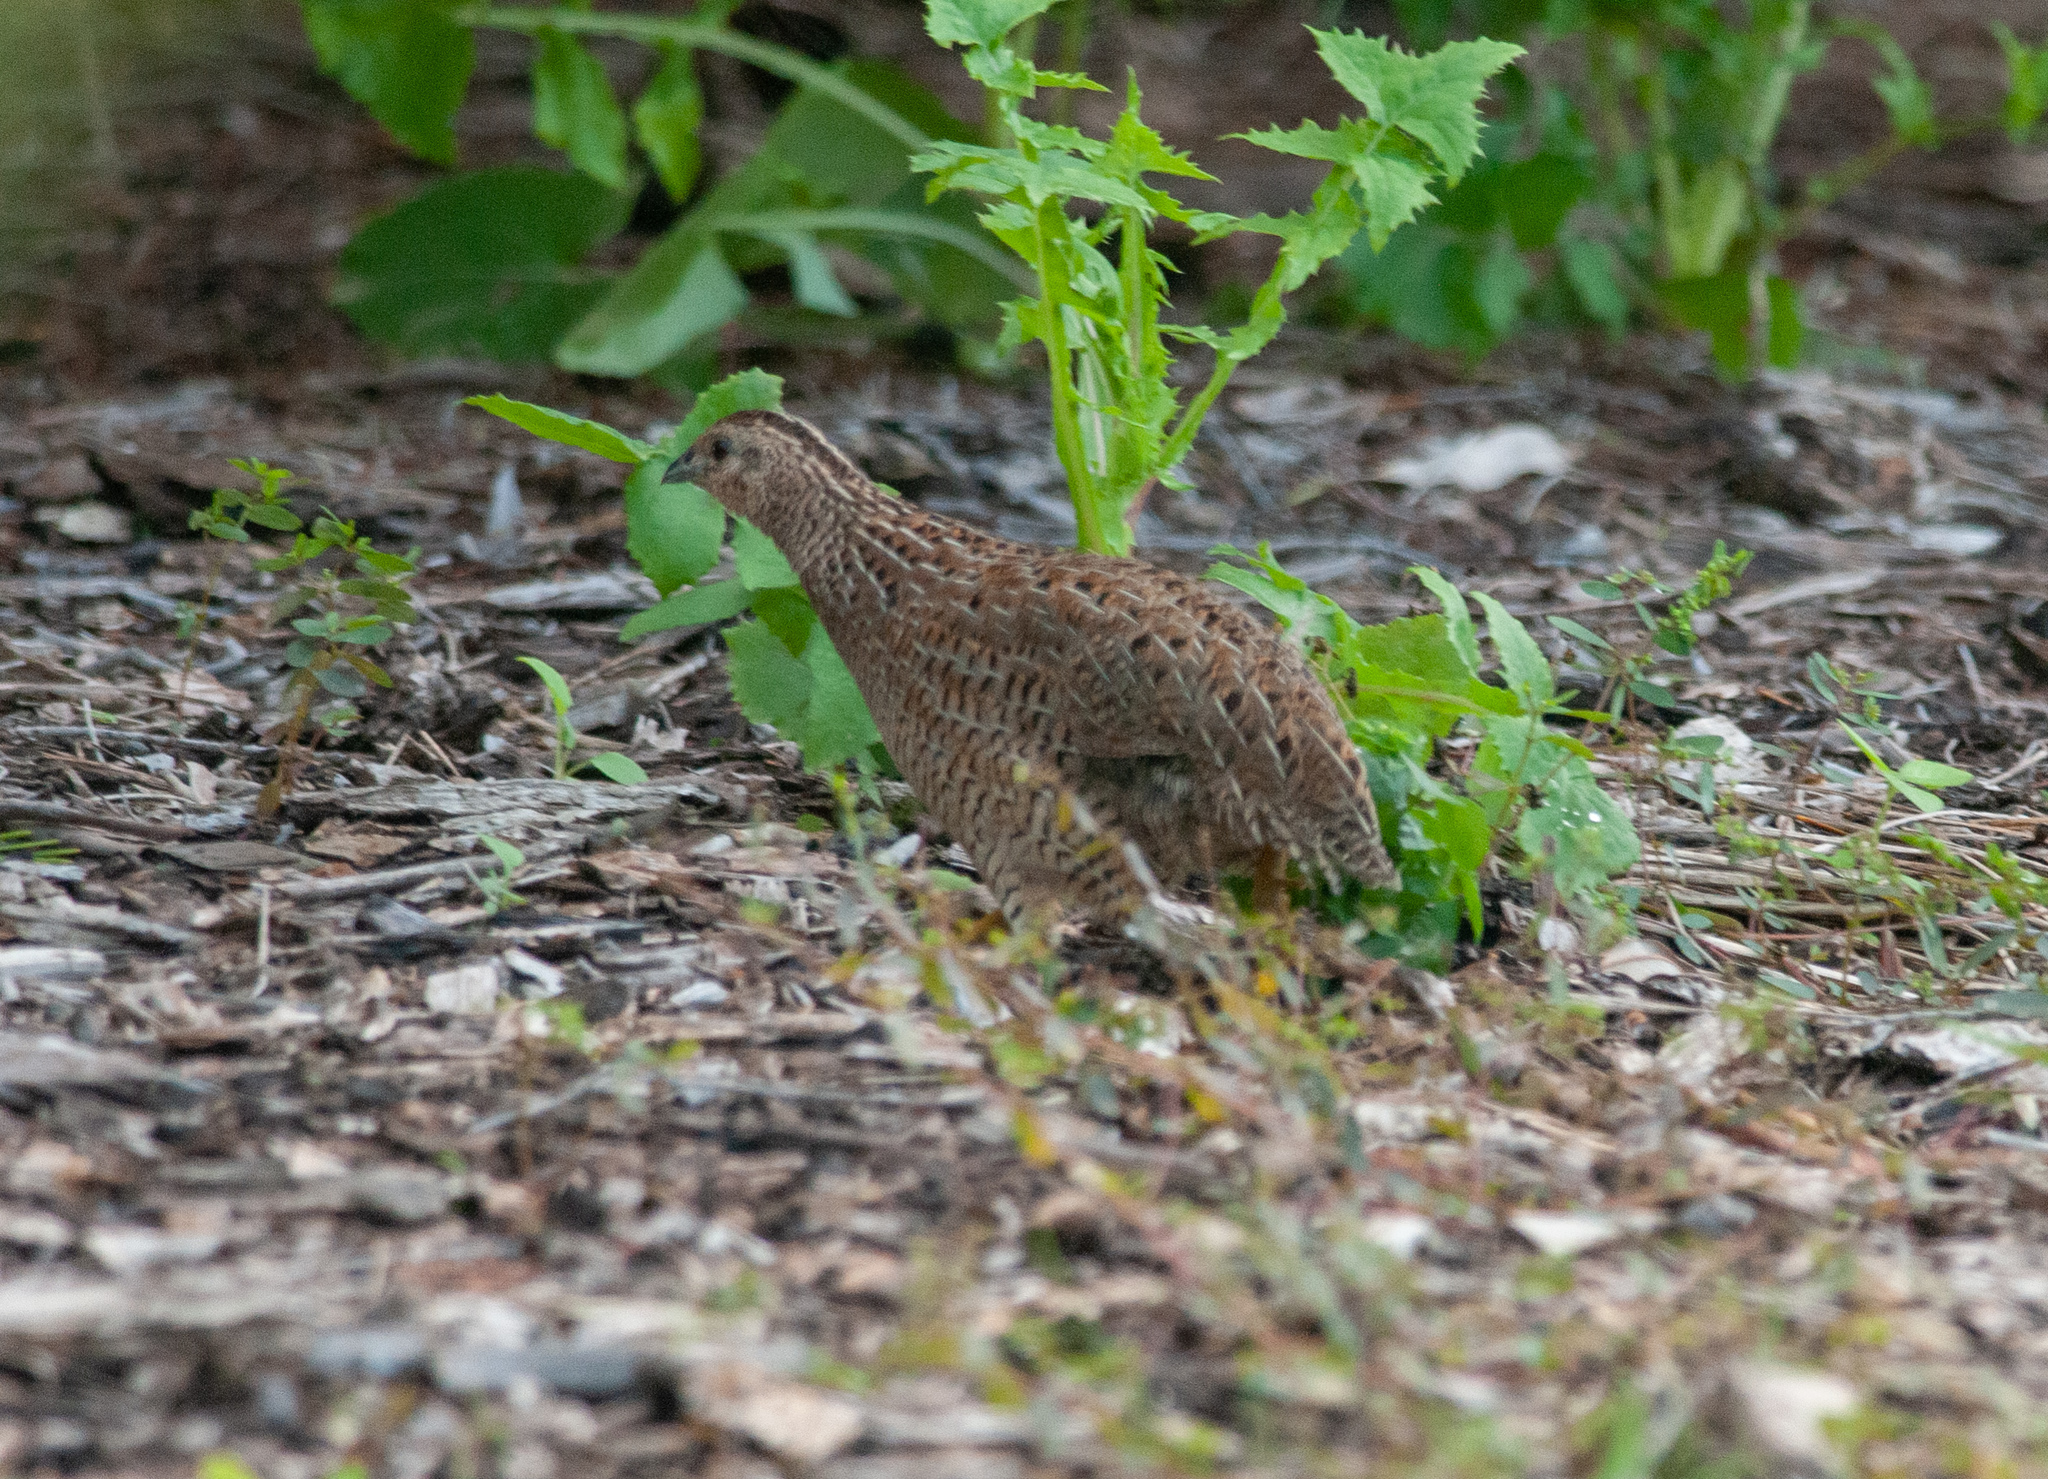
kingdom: Animalia
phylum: Chordata
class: Aves
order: Galliformes
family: Phasianidae
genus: Synoicus
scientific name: Synoicus ypsilophorus
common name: Brown quail
